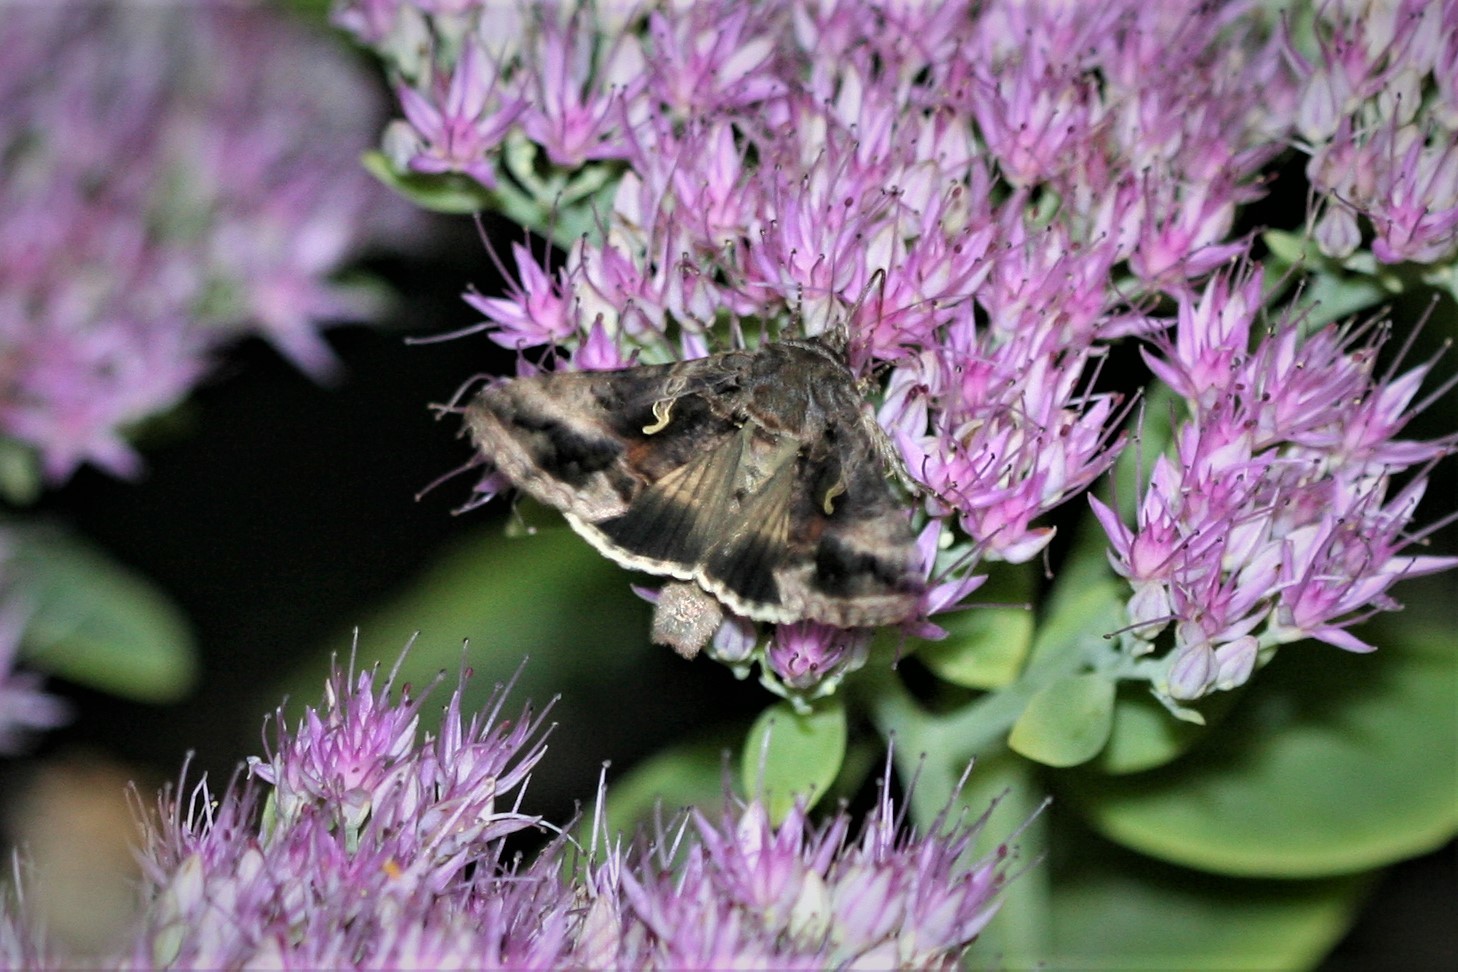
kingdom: Animalia
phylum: Arthropoda
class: Insecta
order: Lepidoptera
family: Noctuidae
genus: Autographa
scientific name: Autographa gamma
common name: Silver y
